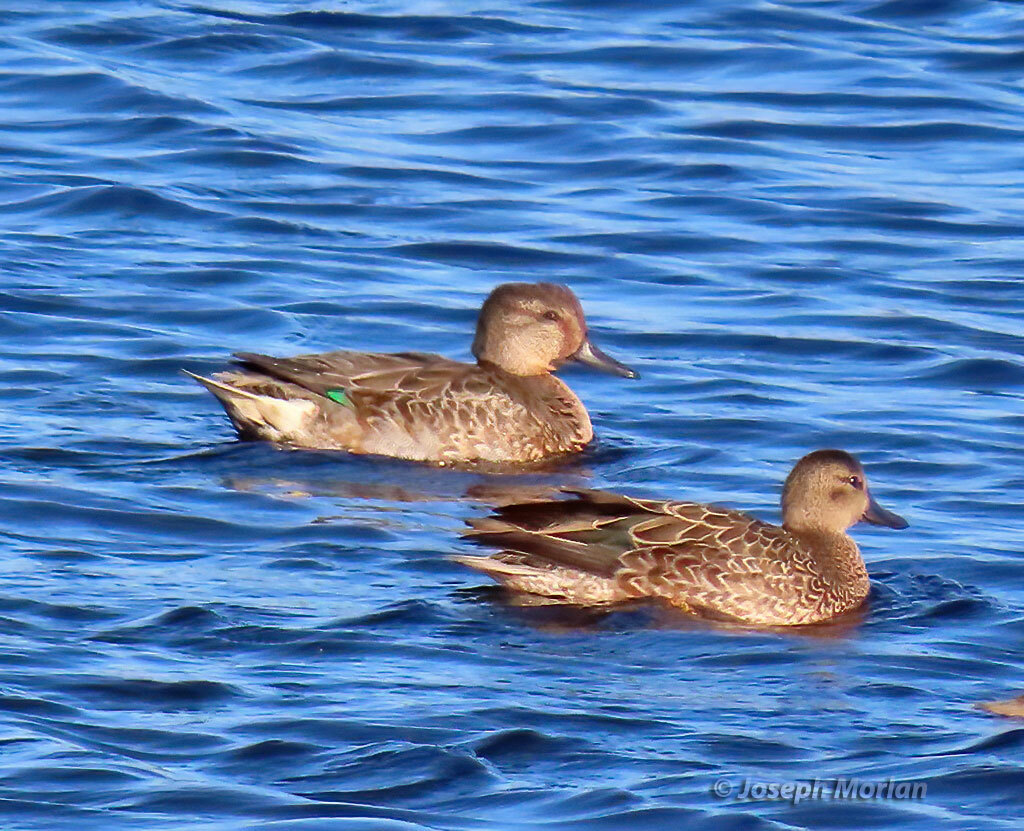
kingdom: Animalia
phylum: Chordata
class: Aves
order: Anseriformes
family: Anatidae
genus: Anas
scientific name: Anas crecca
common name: Eurasian teal
